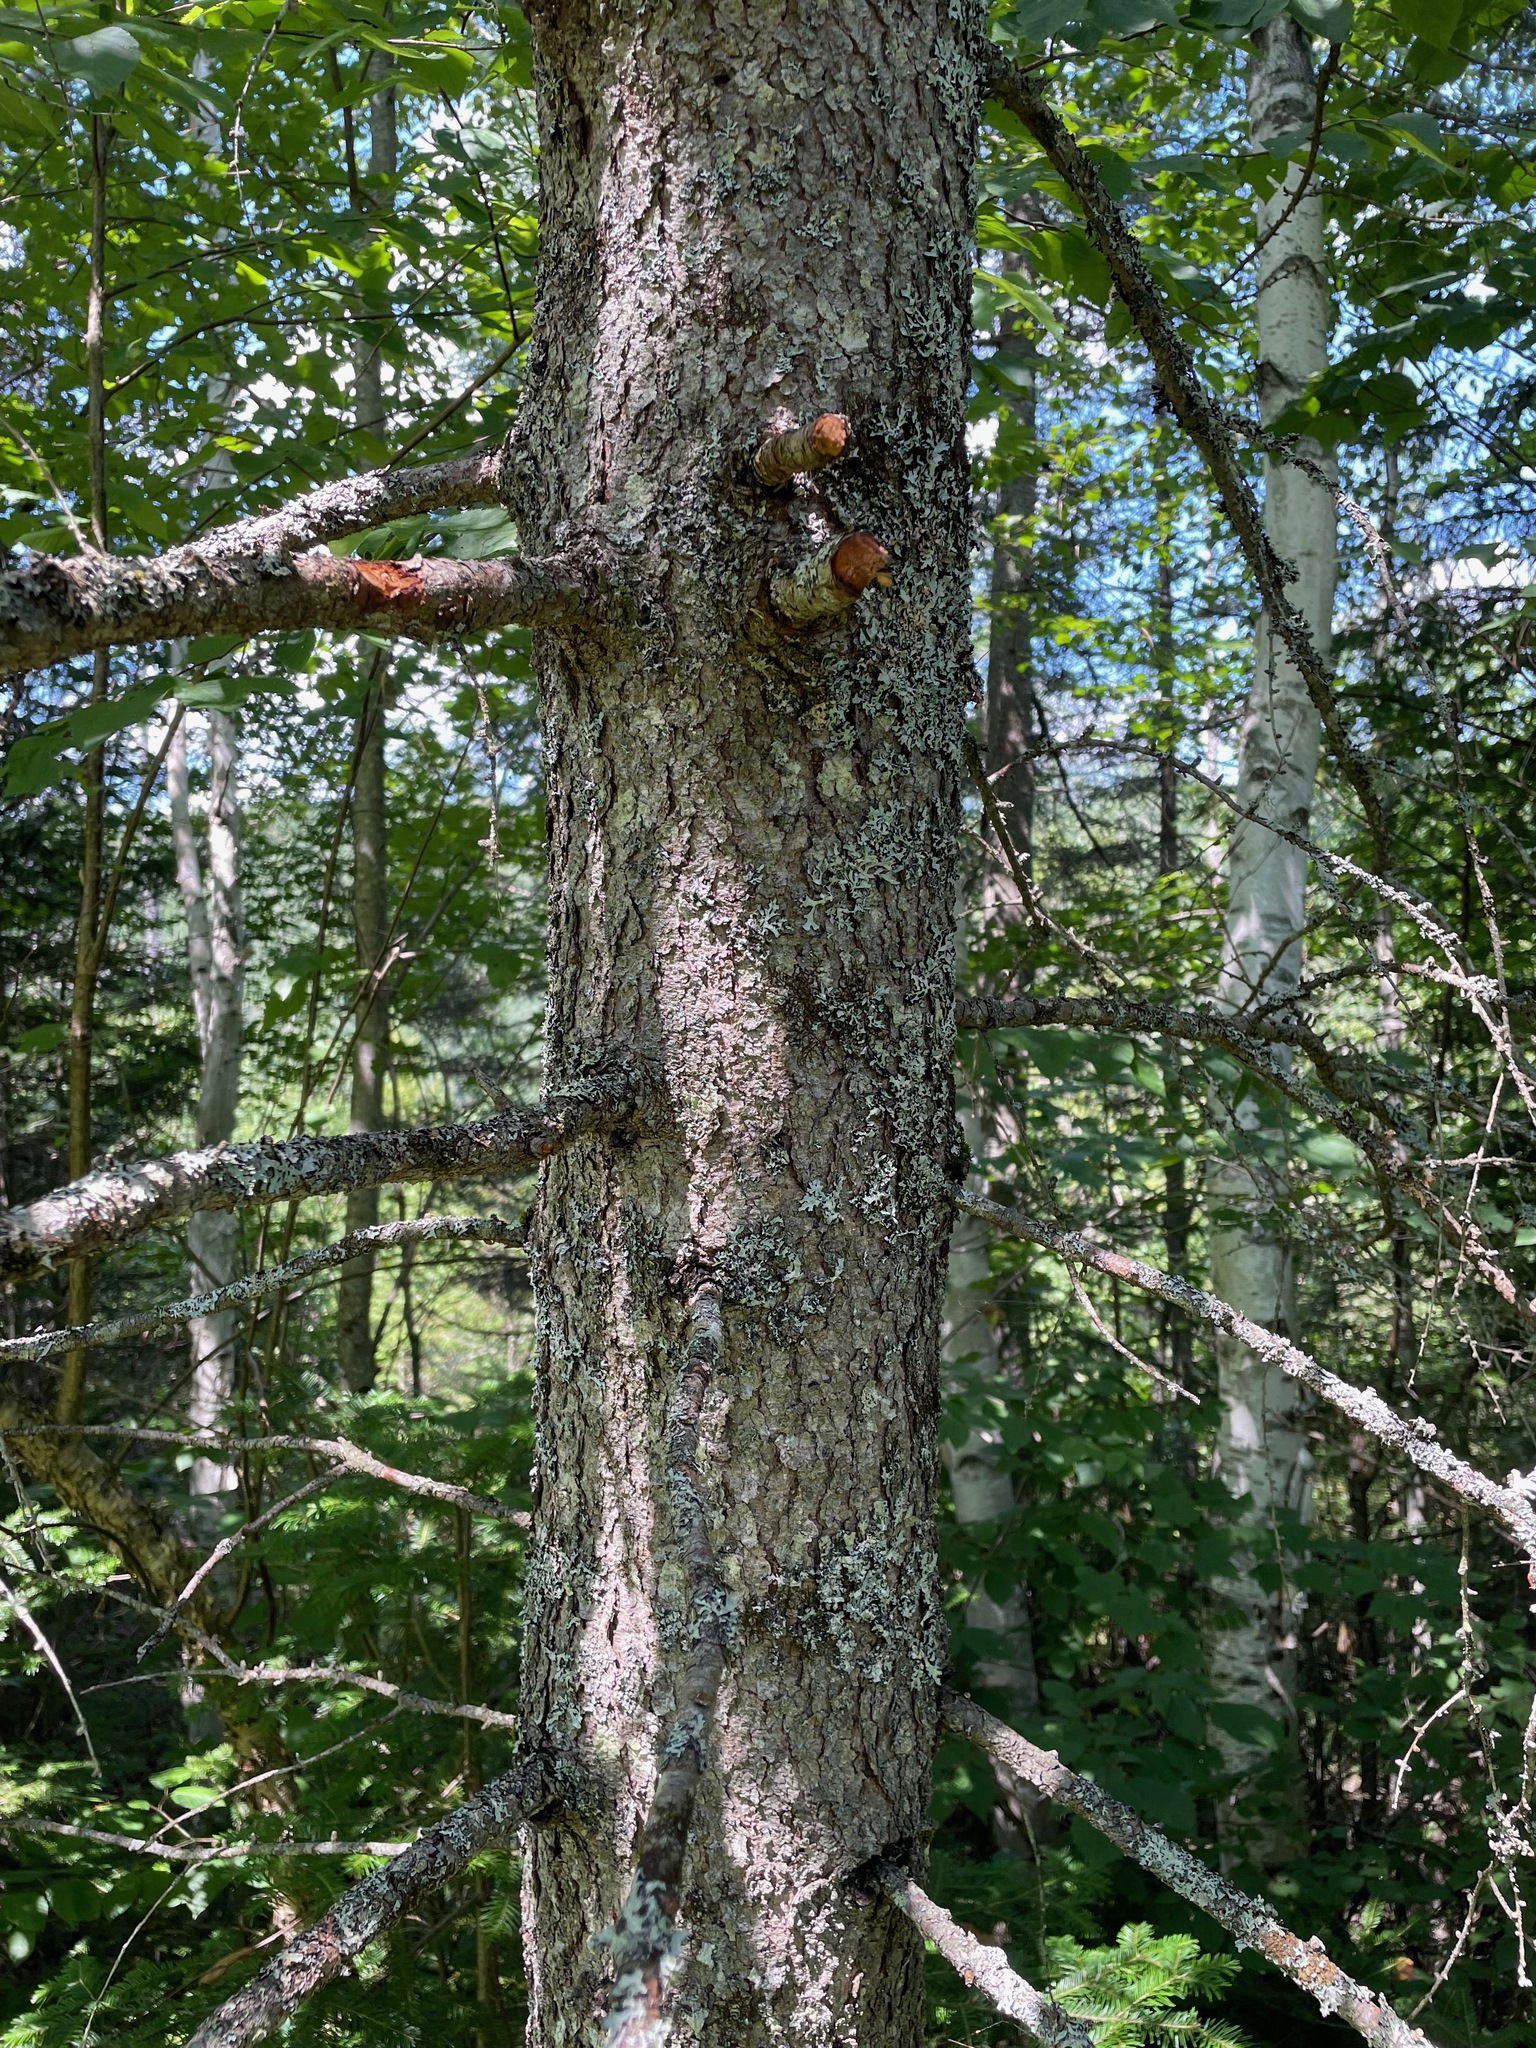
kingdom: Plantae
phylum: Tracheophyta
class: Pinopsida
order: Pinales
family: Pinaceae
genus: Larix
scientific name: Larix laricina
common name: American larch
